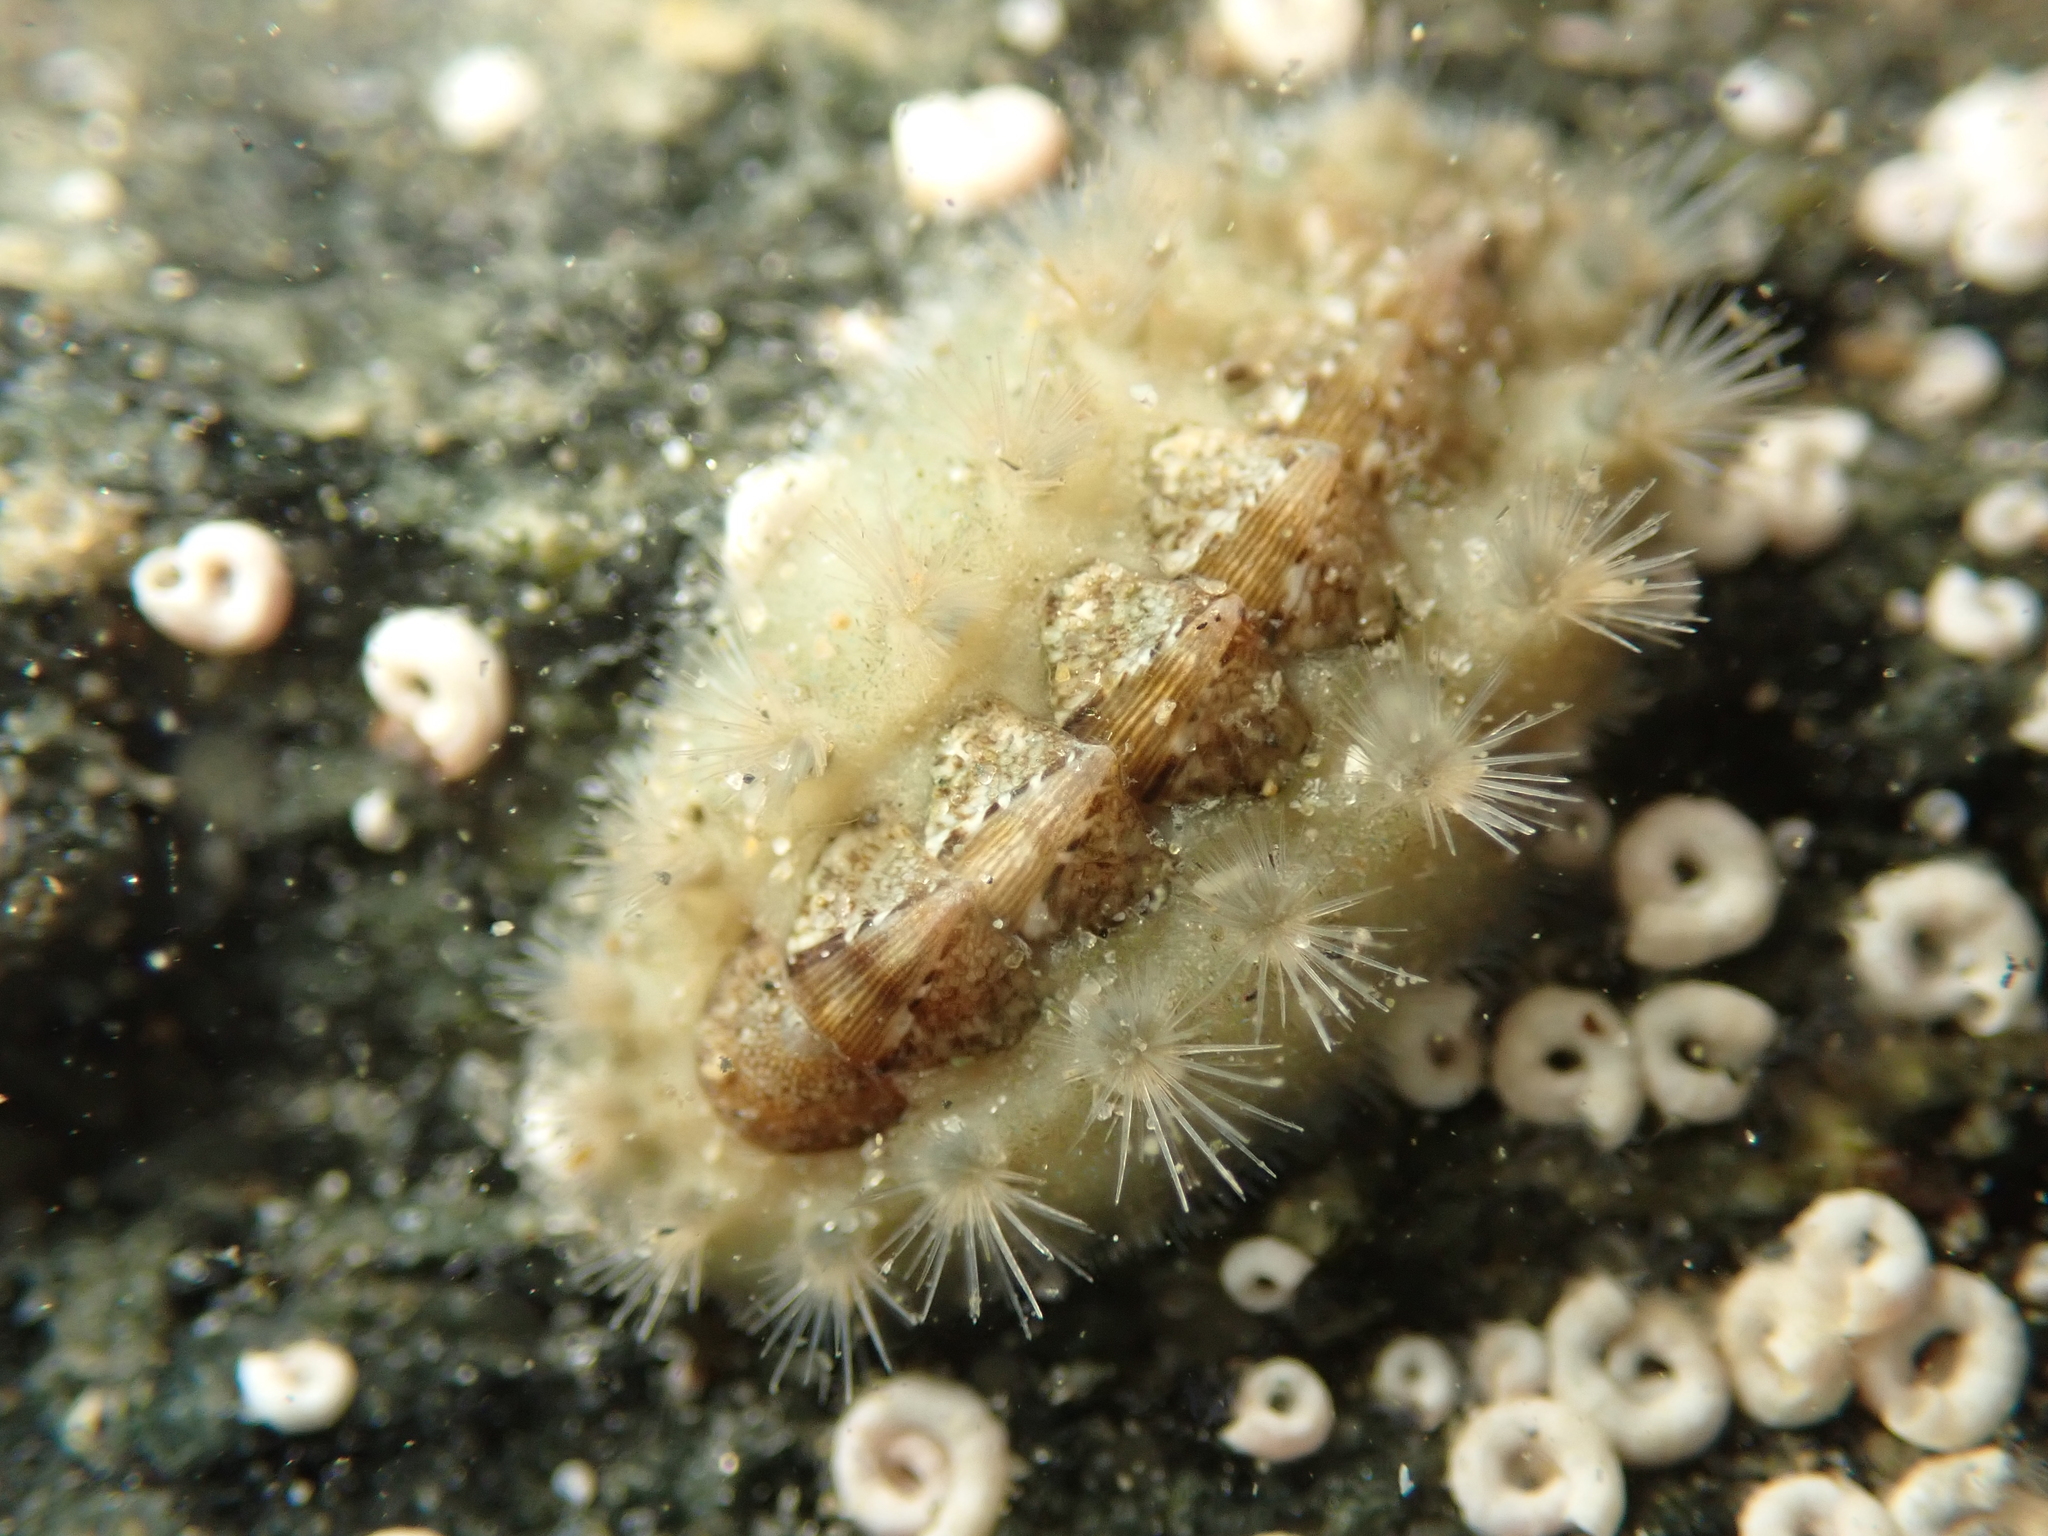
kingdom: Animalia
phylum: Mollusca
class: Polyplacophora
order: Chitonida
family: Acanthochitonidae
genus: Acanthochitona
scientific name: Acanthochitona zelandica
